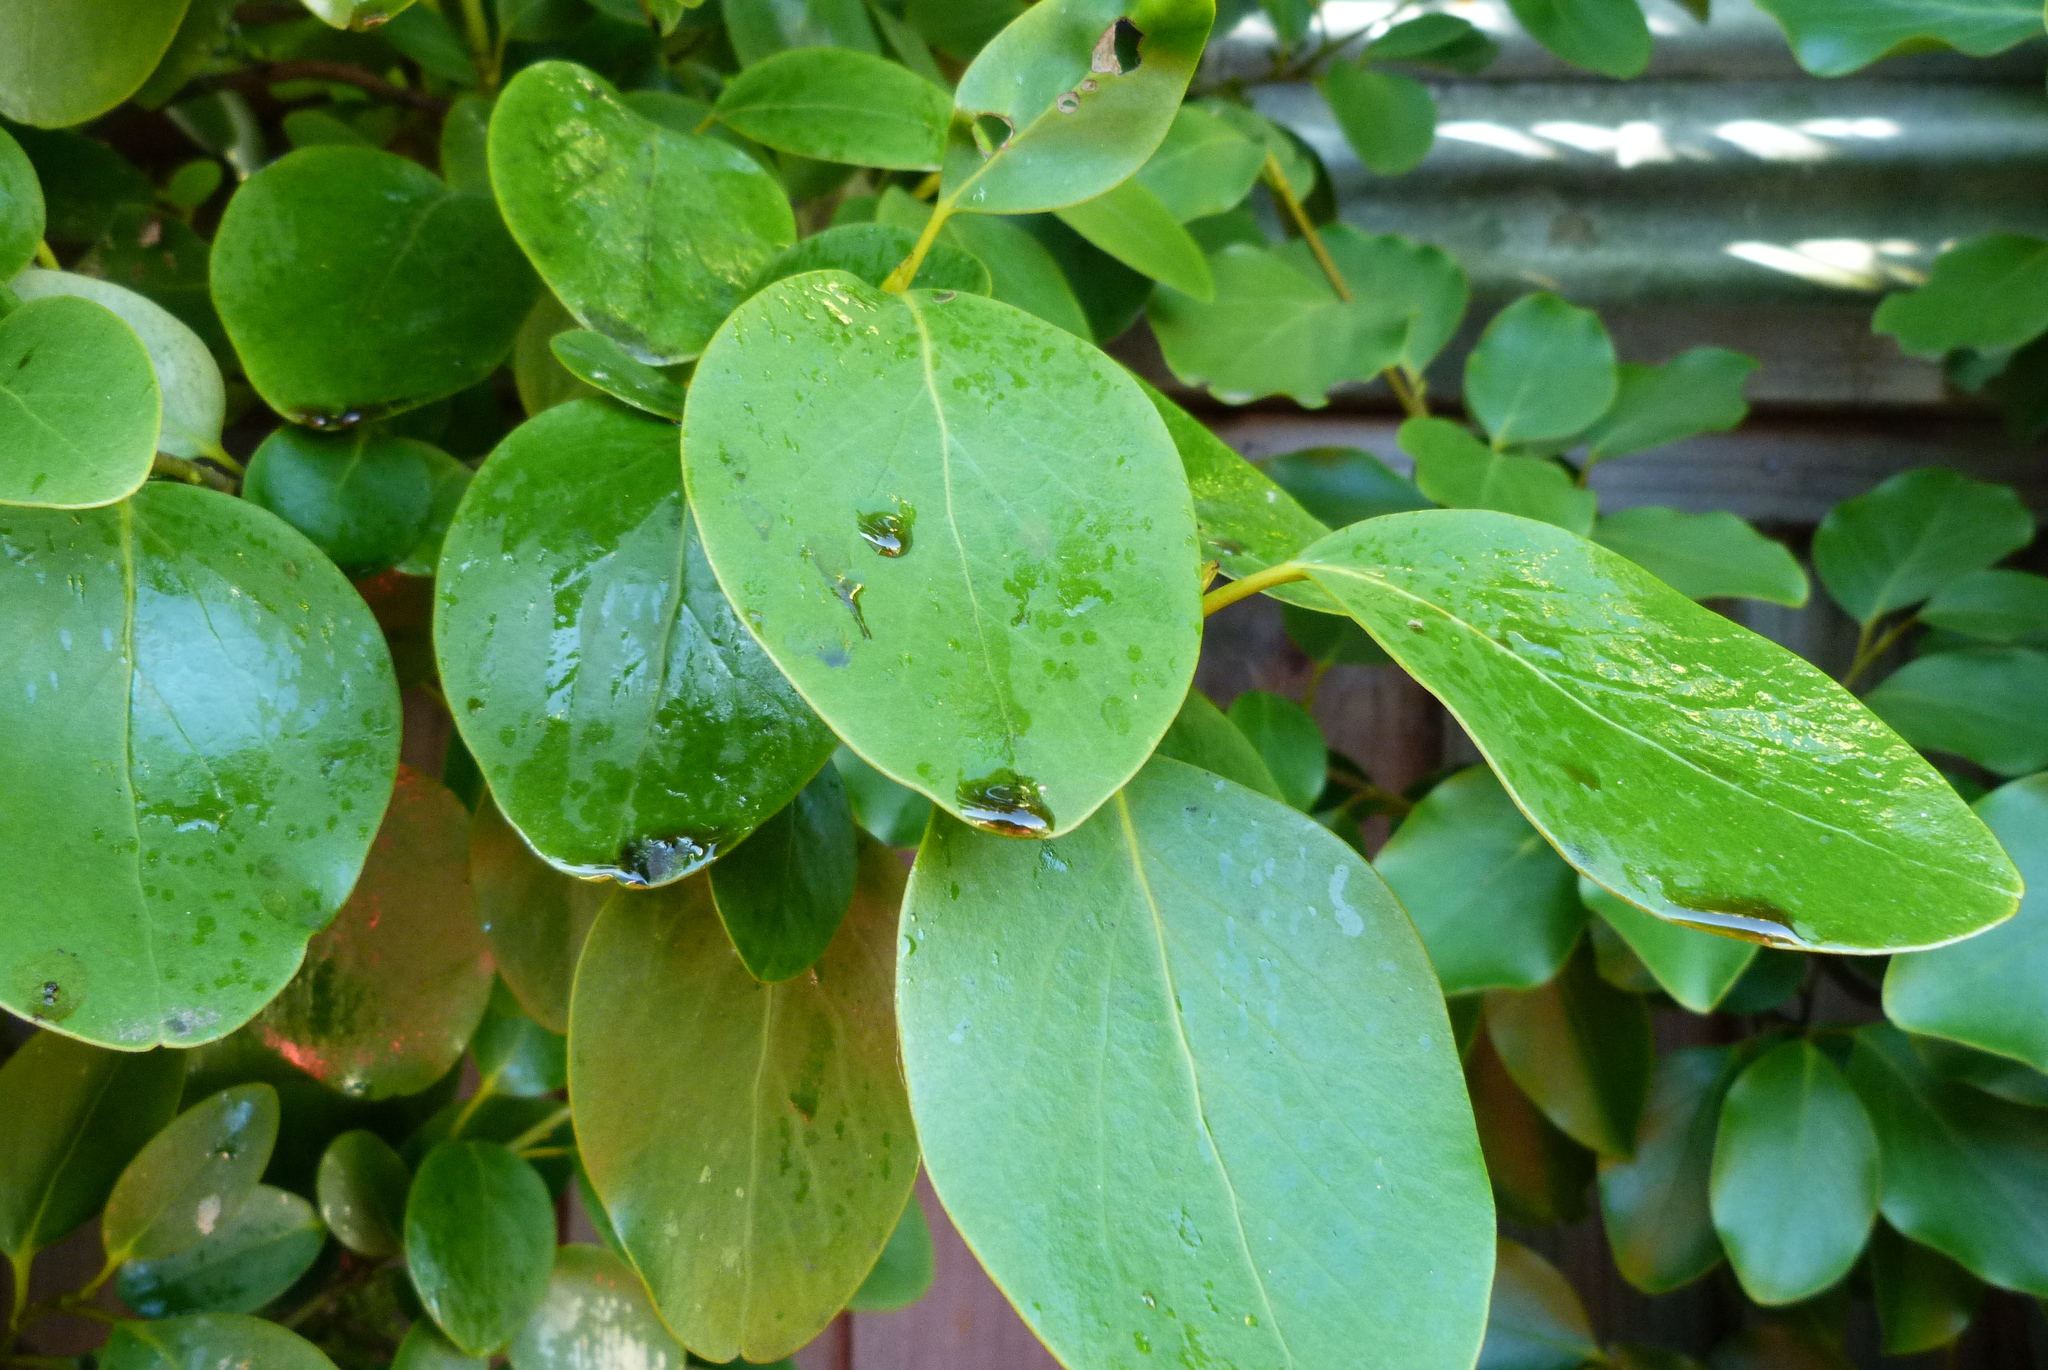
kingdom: Animalia
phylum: Arthropoda
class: Insecta
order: Hemiptera
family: Ricaniidae
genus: Scolypopa
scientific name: Scolypopa australis
